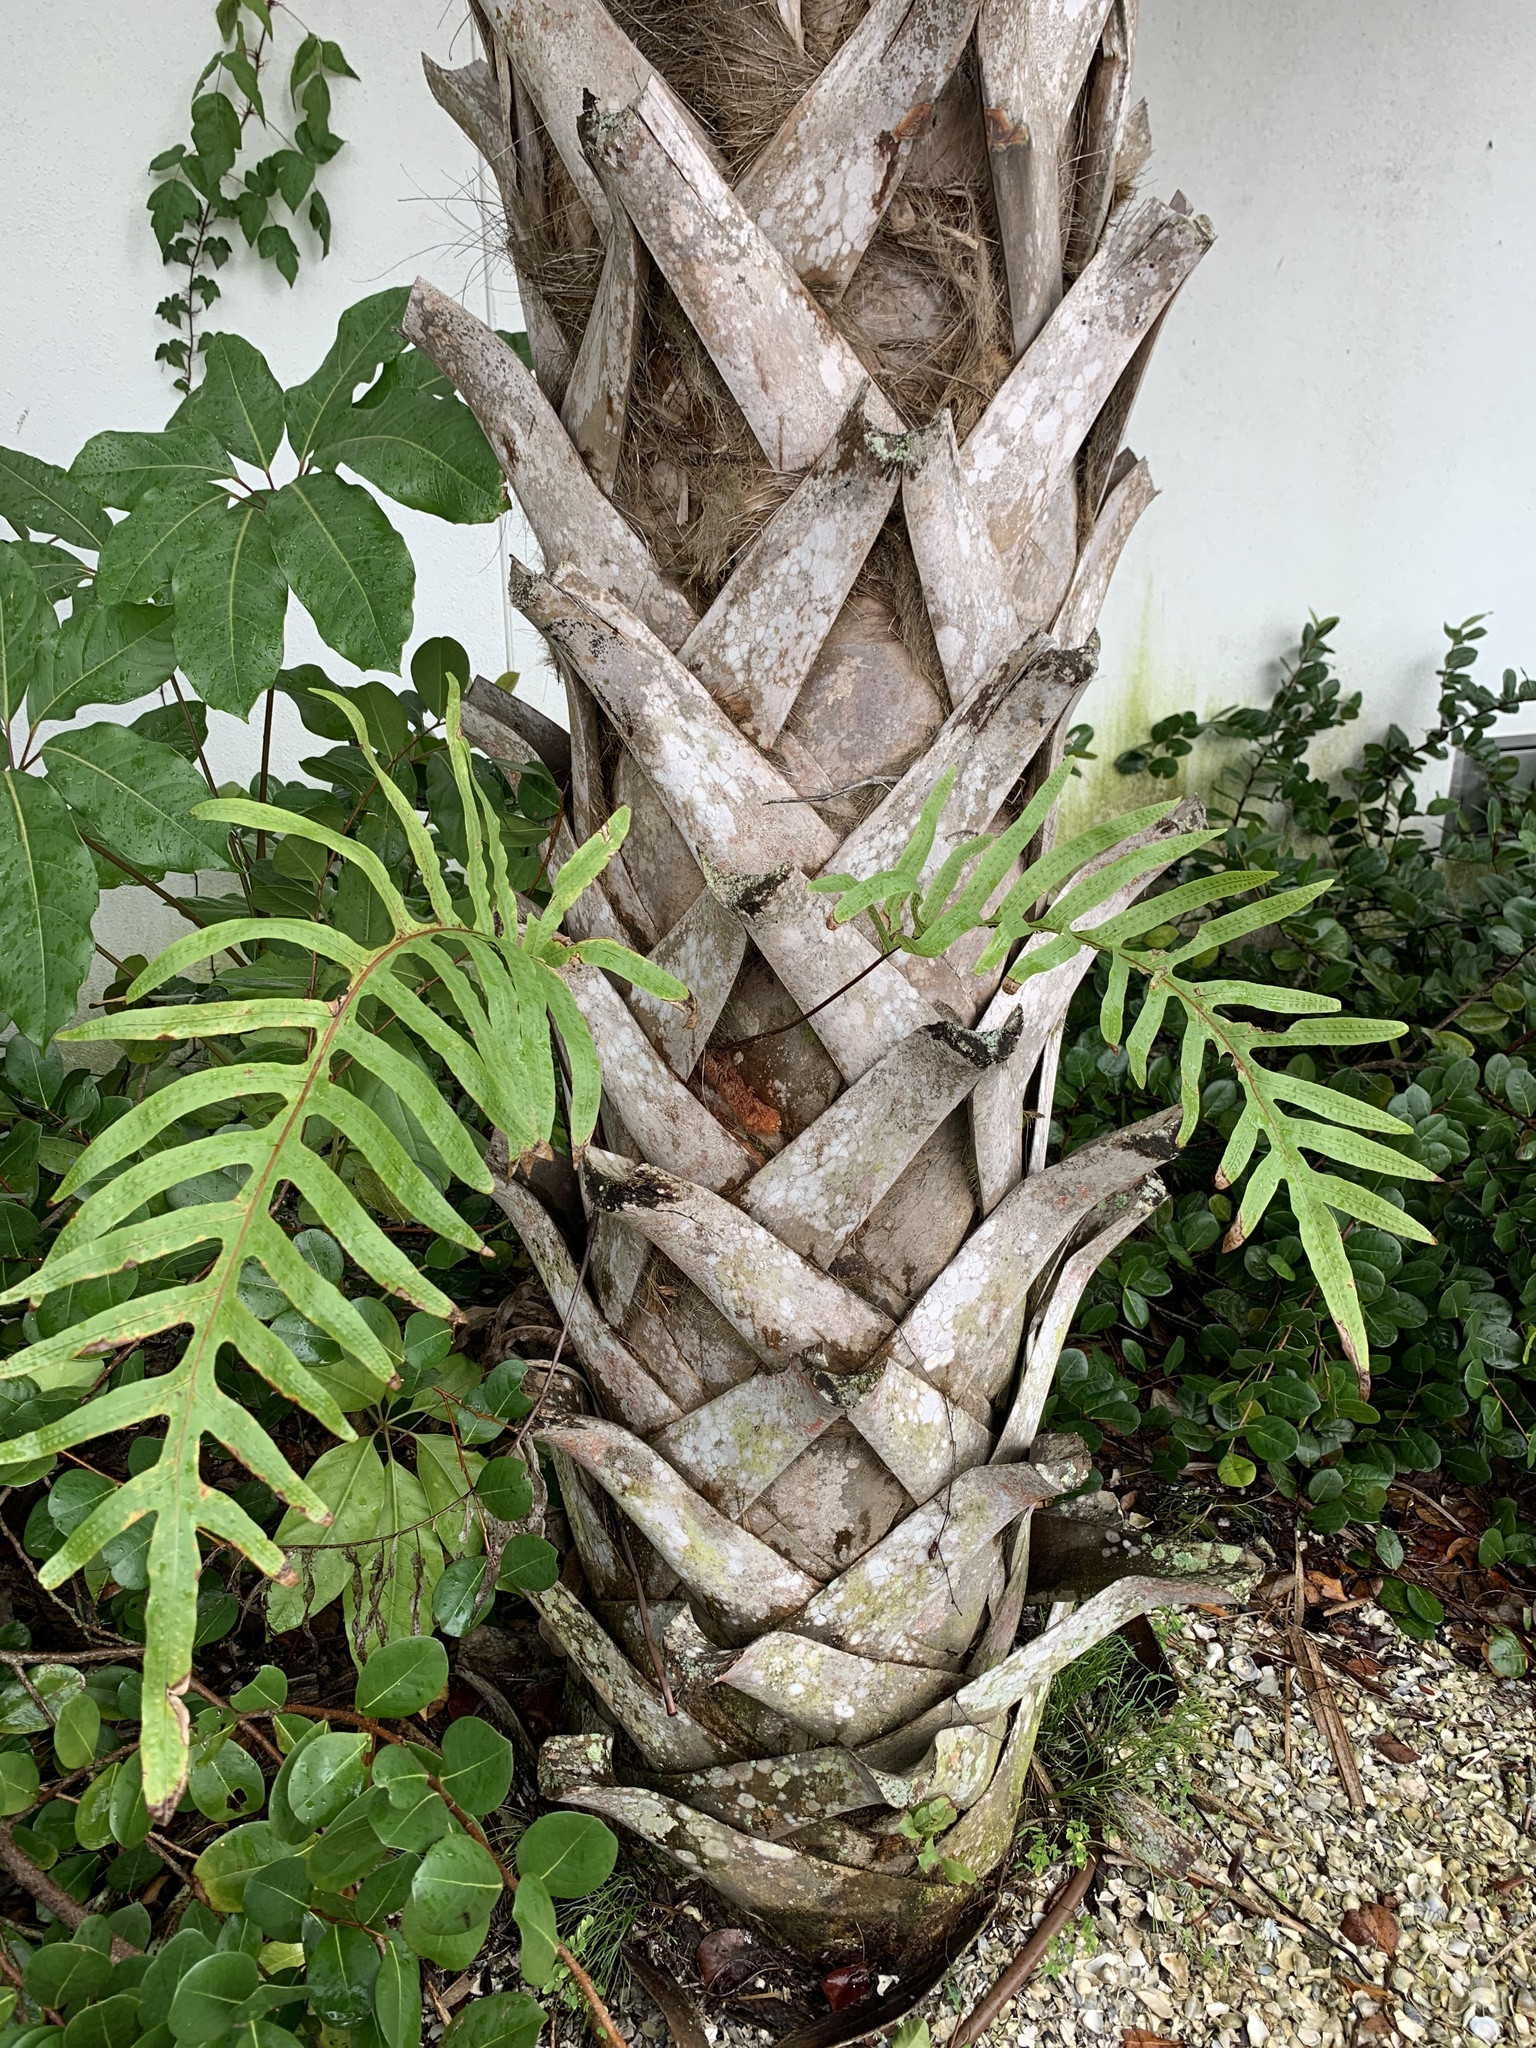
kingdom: Plantae
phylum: Tracheophyta
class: Polypodiopsida
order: Polypodiales
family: Polypodiaceae
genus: Phlebodium
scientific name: Phlebodium aureum
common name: Gold-foot fern
